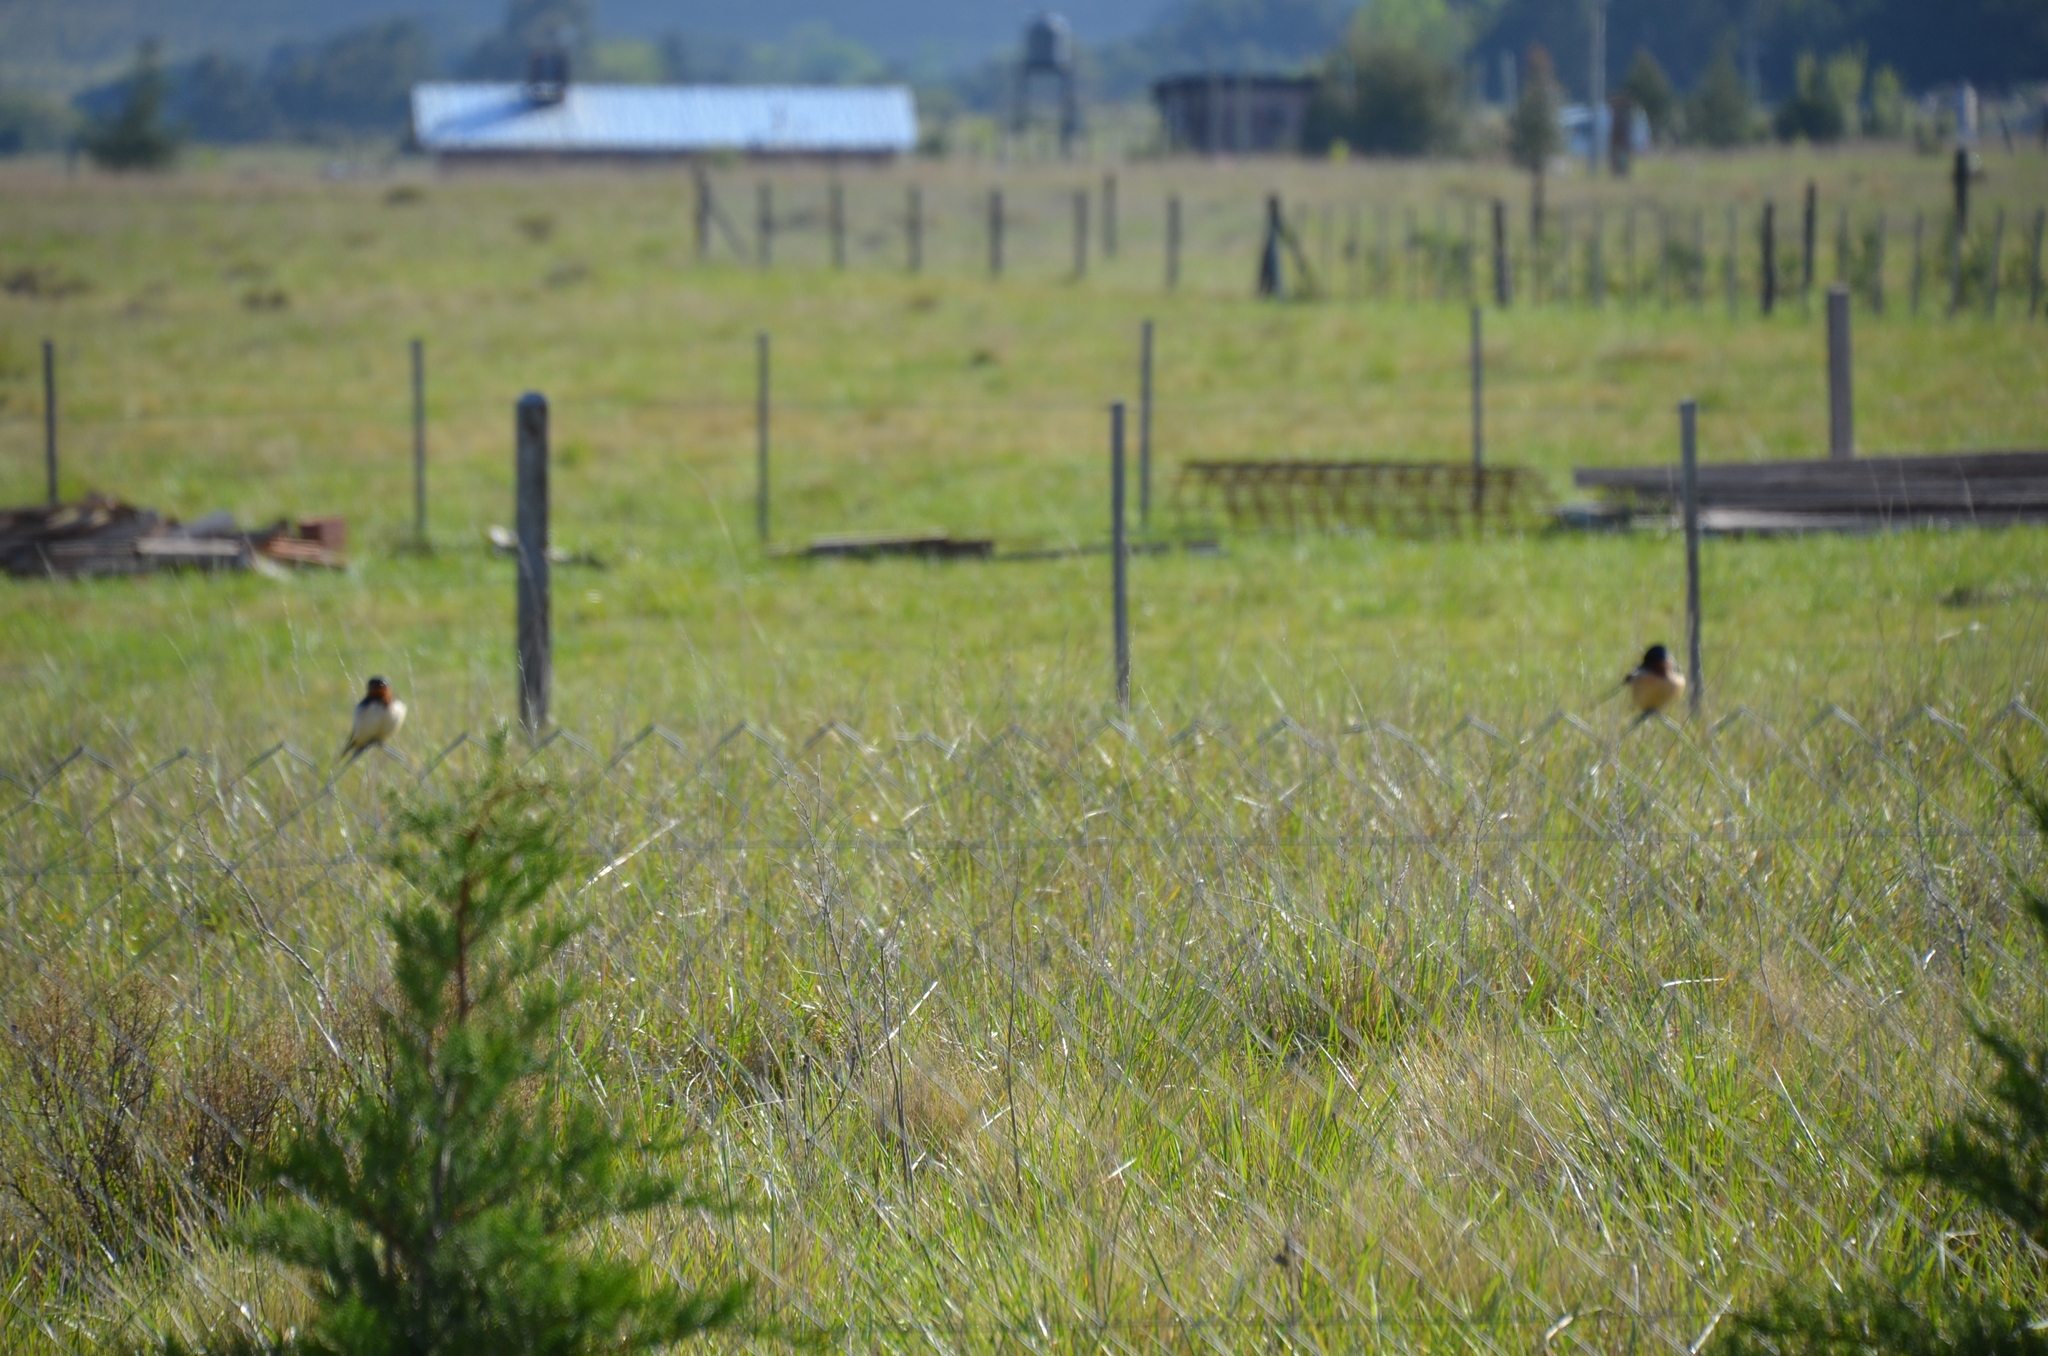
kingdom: Animalia
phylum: Chordata
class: Aves
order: Passeriformes
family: Hirundinidae
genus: Hirundo
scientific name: Hirundo rustica
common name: Barn swallow
